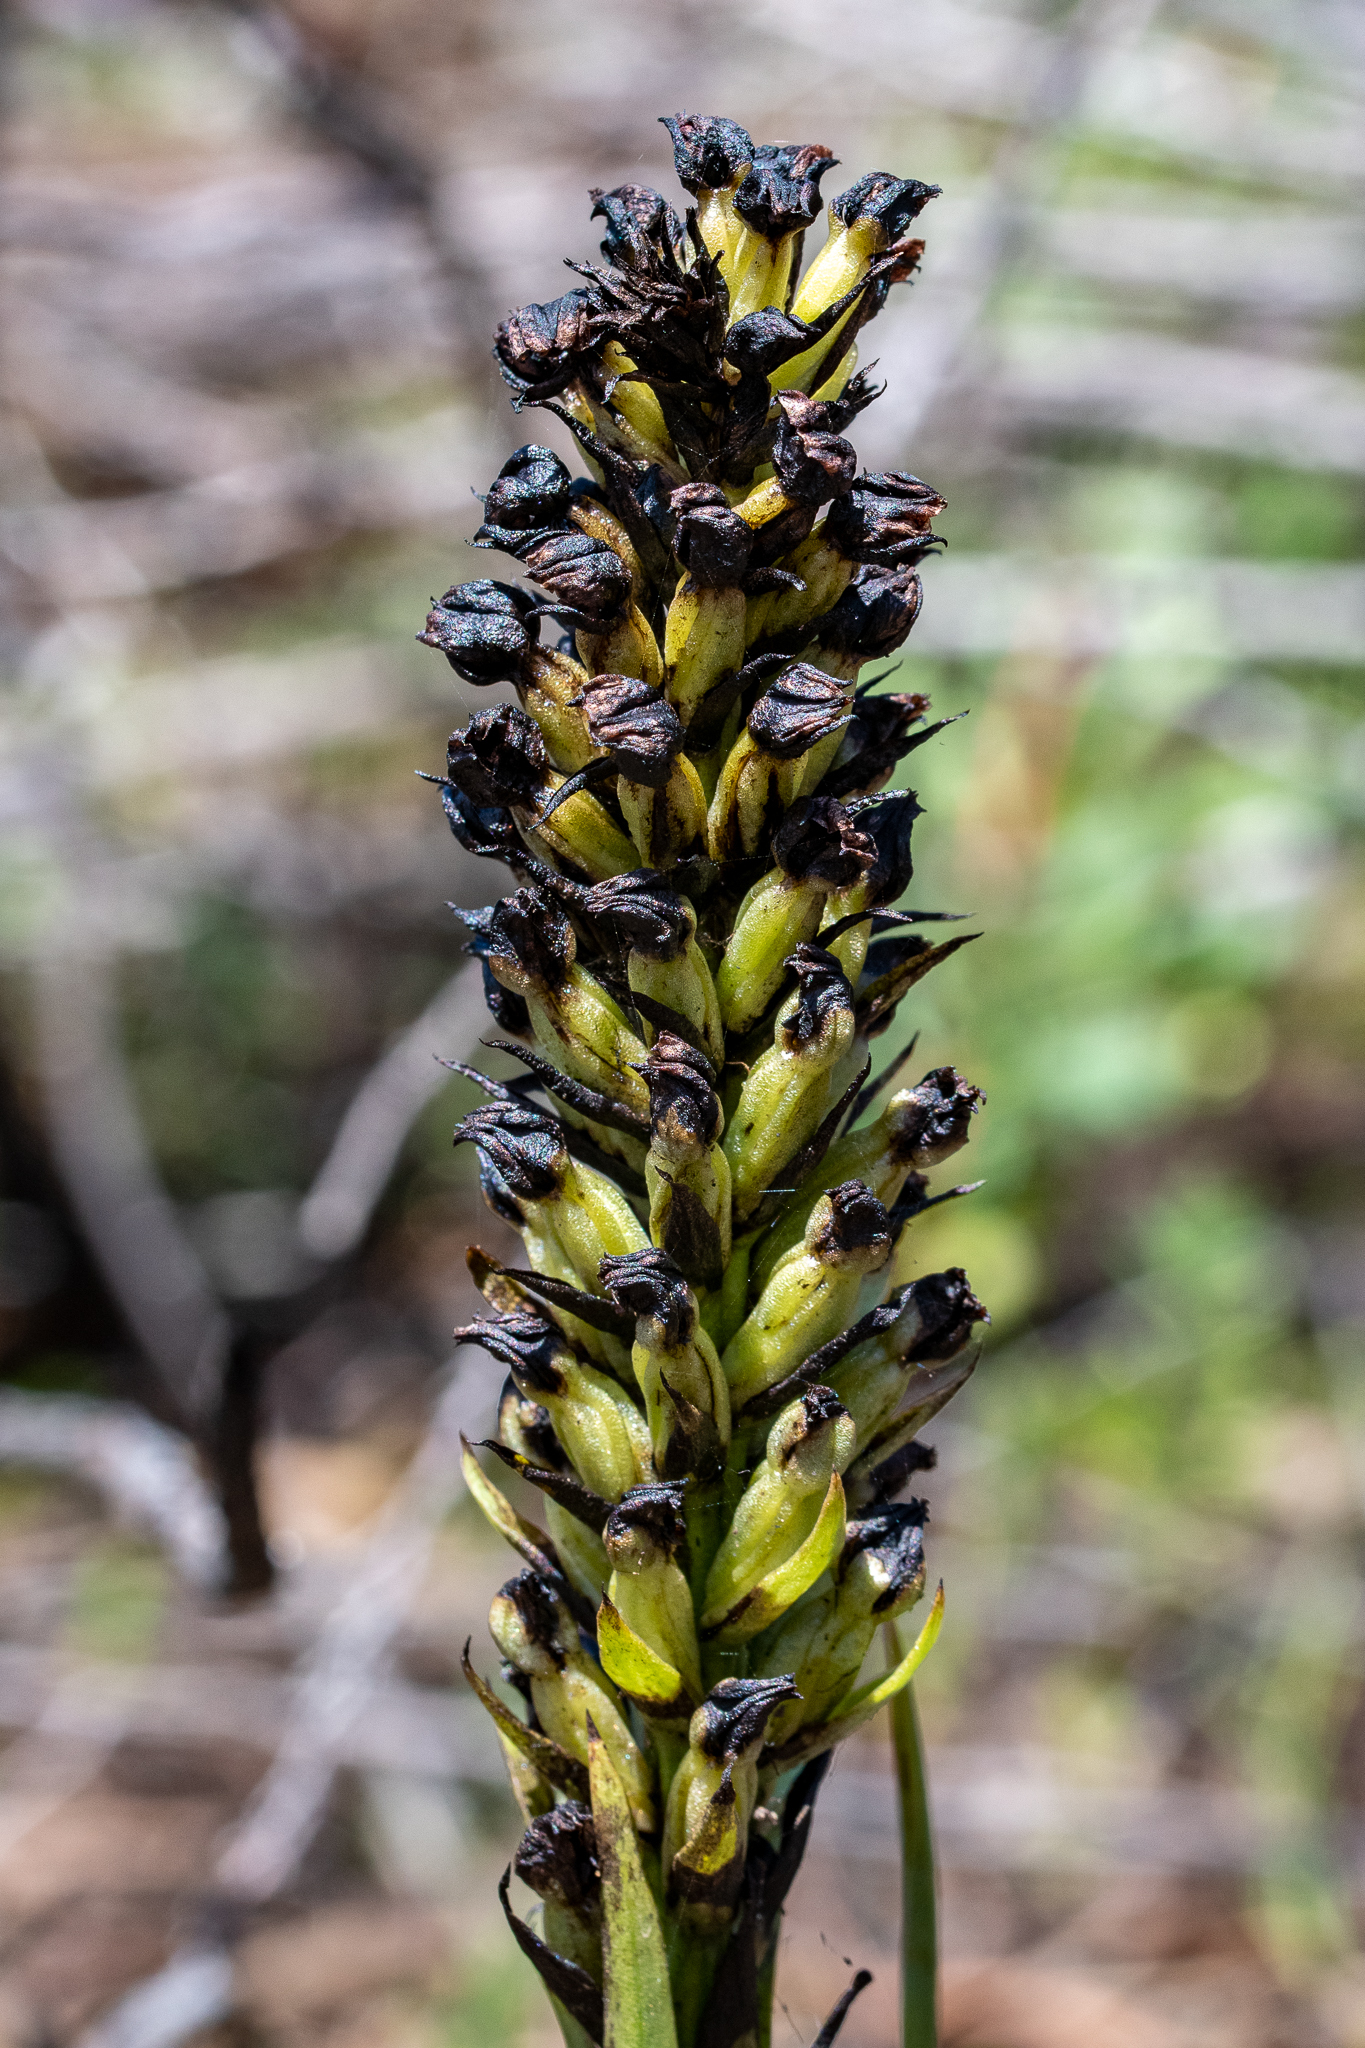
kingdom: Plantae
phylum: Tracheophyta
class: Liliopsida
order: Asparagales
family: Orchidaceae
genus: Evotella
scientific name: Evotella carnosa
